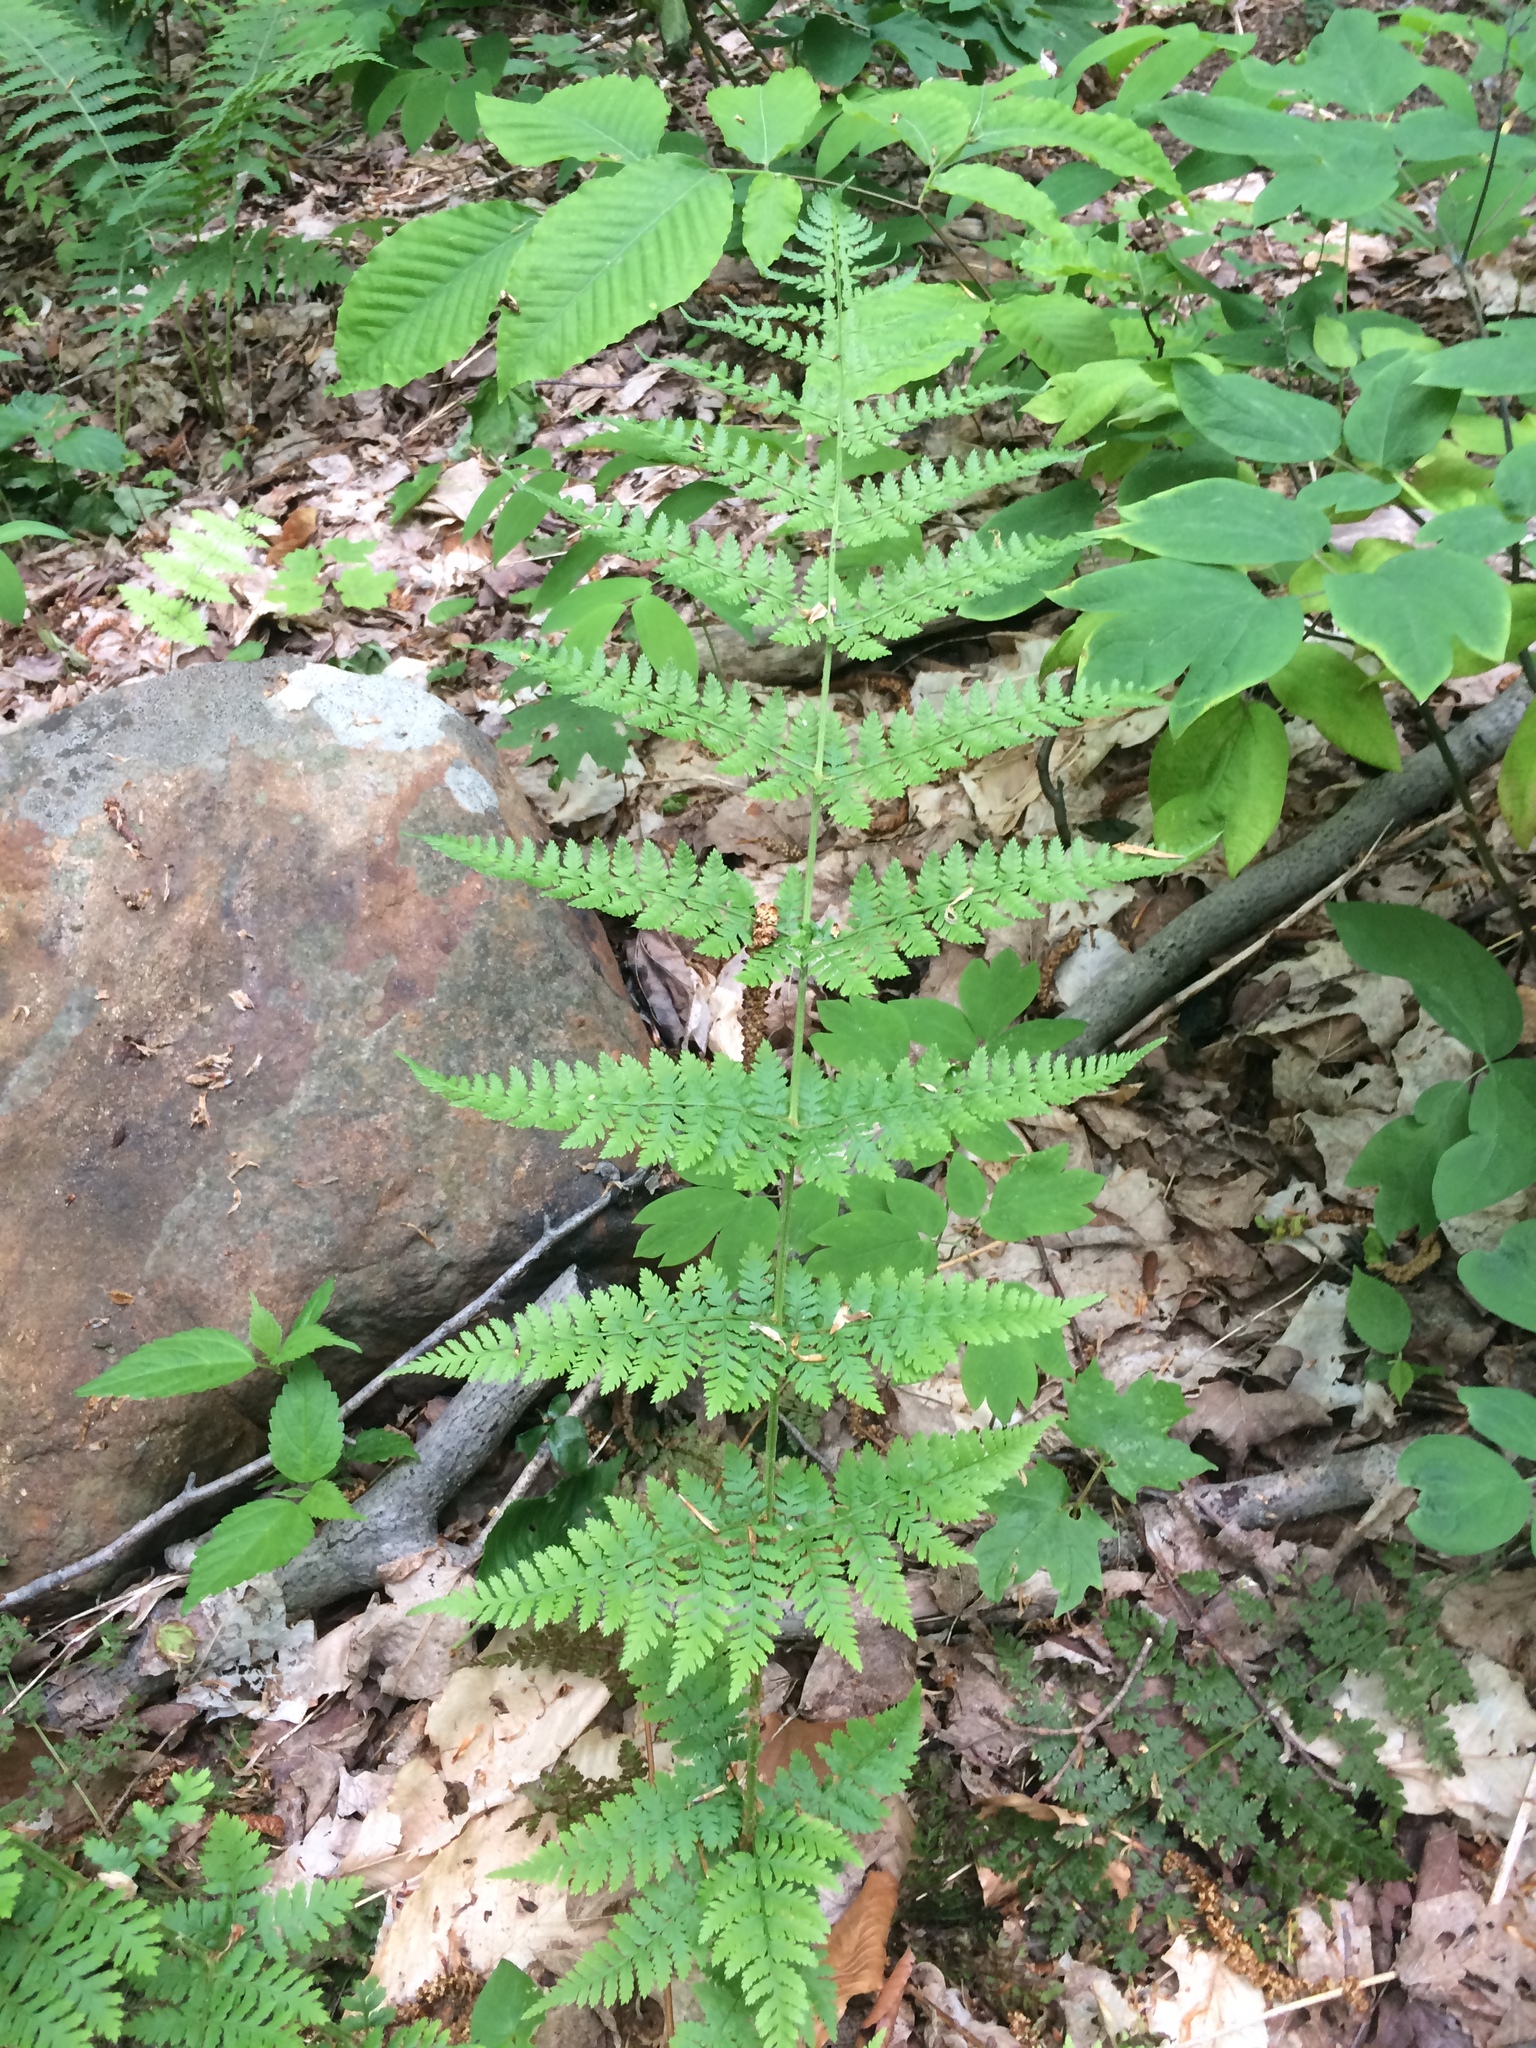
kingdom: Plantae
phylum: Tracheophyta
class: Polypodiopsida
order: Polypodiales
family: Dryopteridaceae
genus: Dryopteris
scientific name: Dryopteris intermedia
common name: Evergreen wood fern
